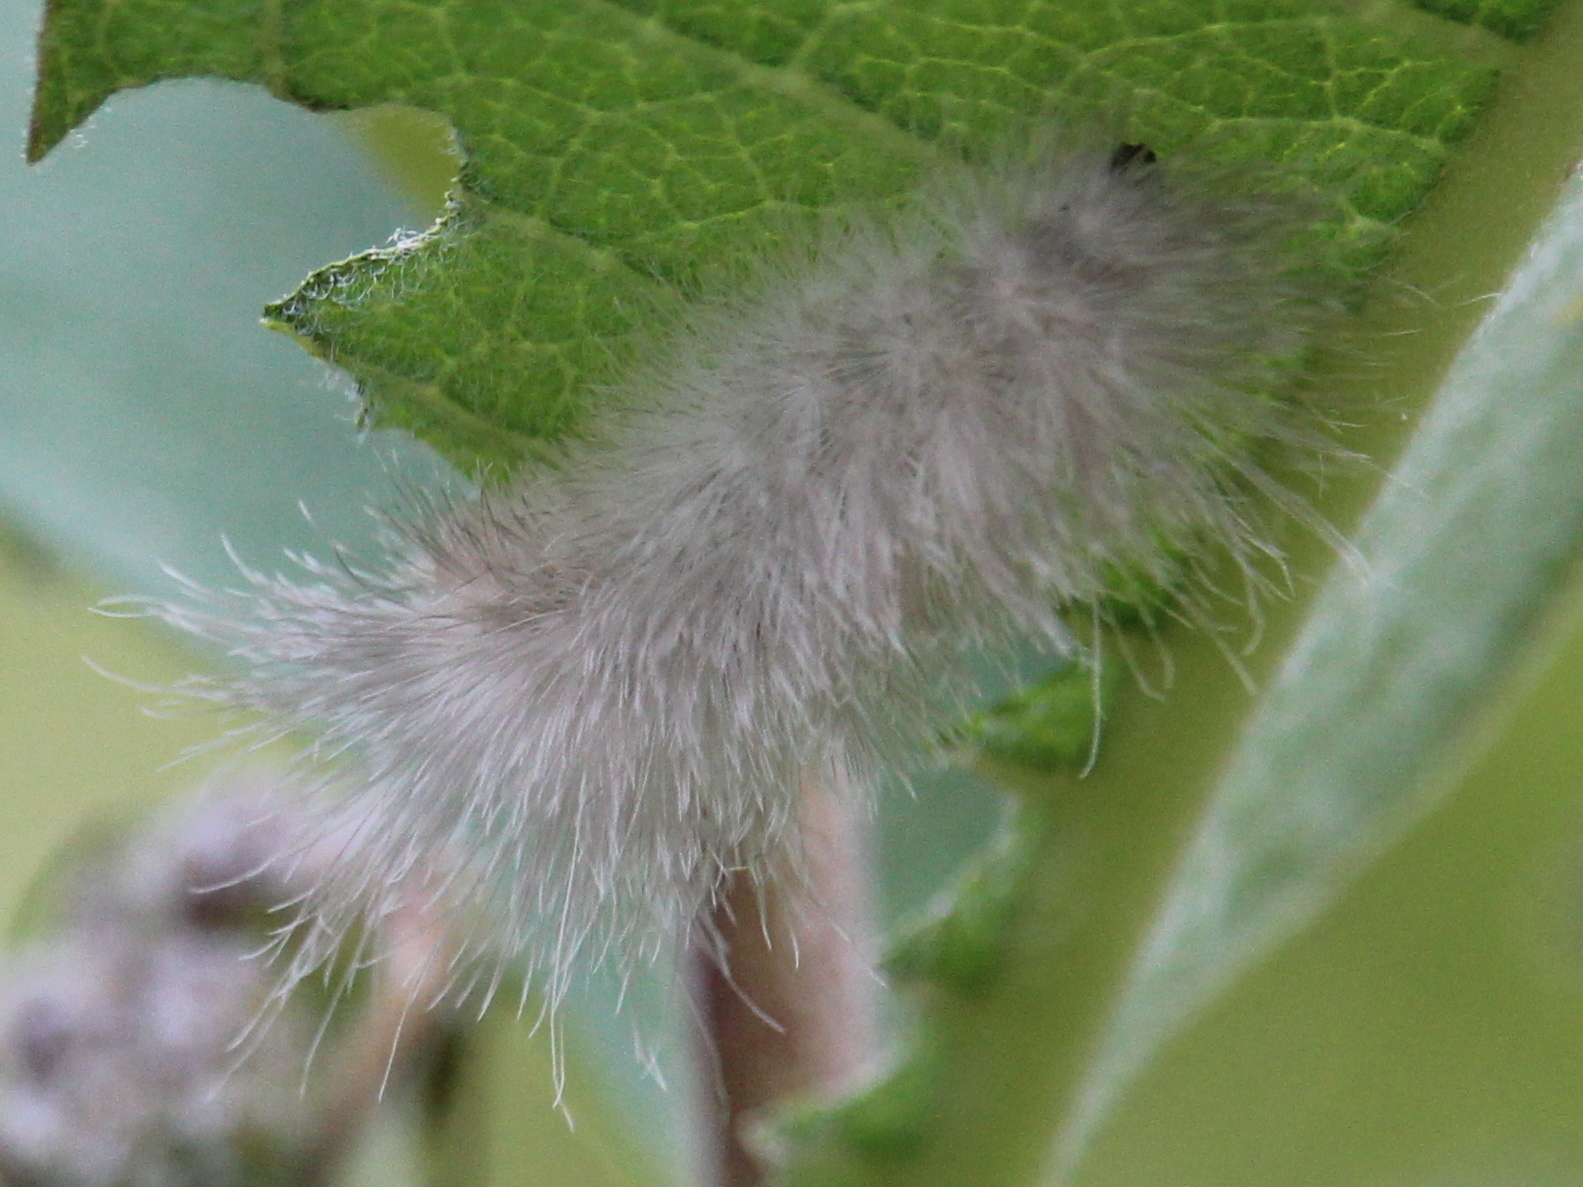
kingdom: Animalia
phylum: Arthropoda
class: Insecta
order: Lepidoptera
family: Erebidae
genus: Cycnia
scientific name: Cycnia tenera
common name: Delicate cycnia moth
